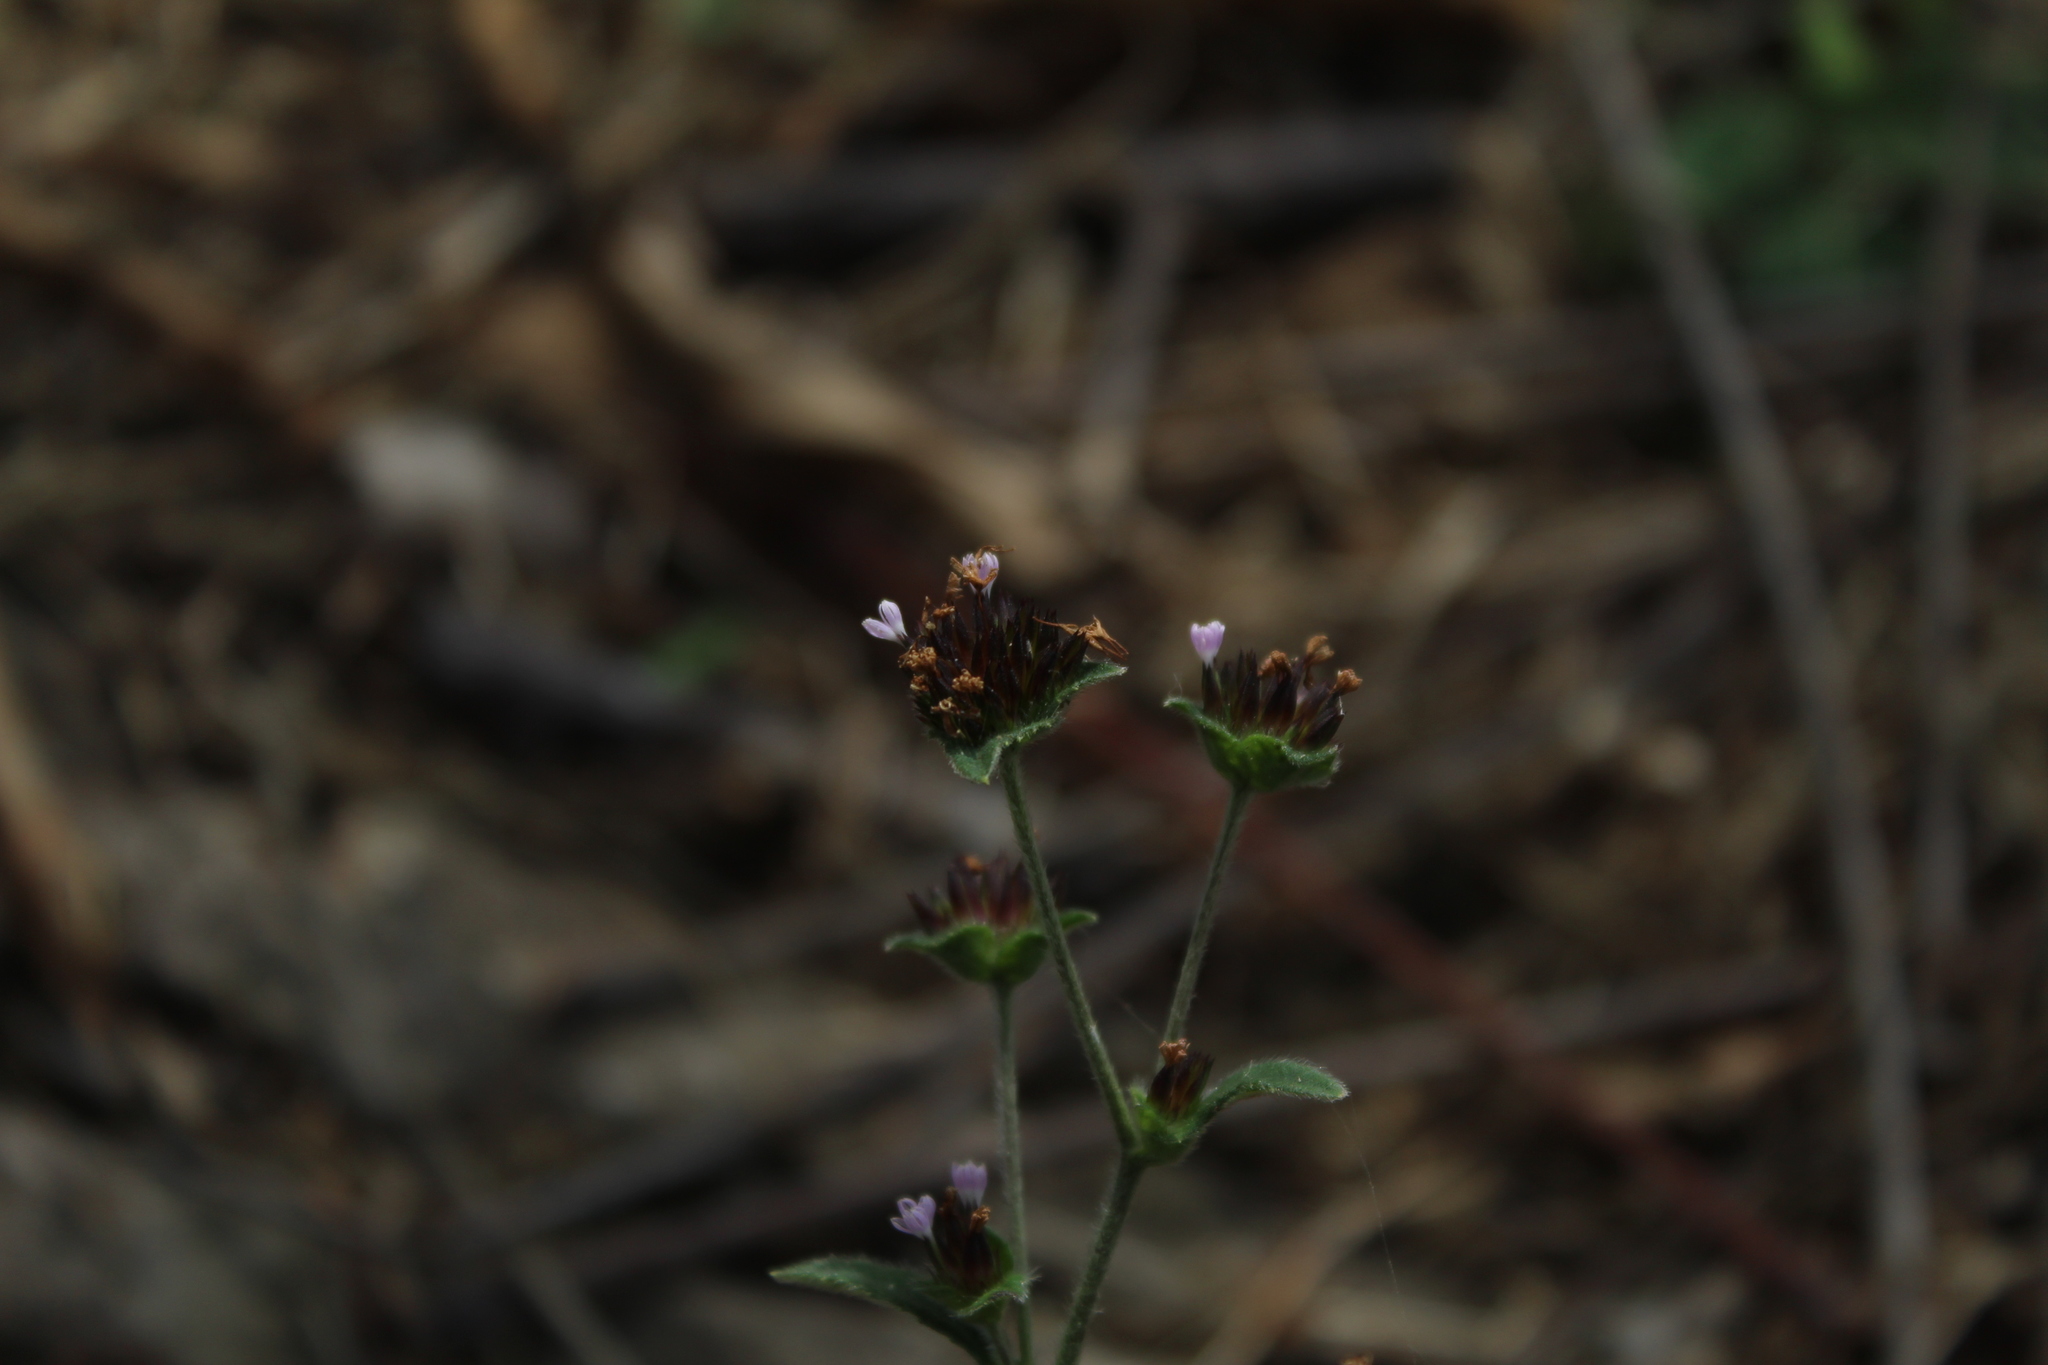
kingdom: Plantae
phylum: Tracheophyta
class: Magnoliopsida
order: Asterales
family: Asteraceae
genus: Elephantopus
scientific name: Elephantopus mollis
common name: Soft elephantsfoot
